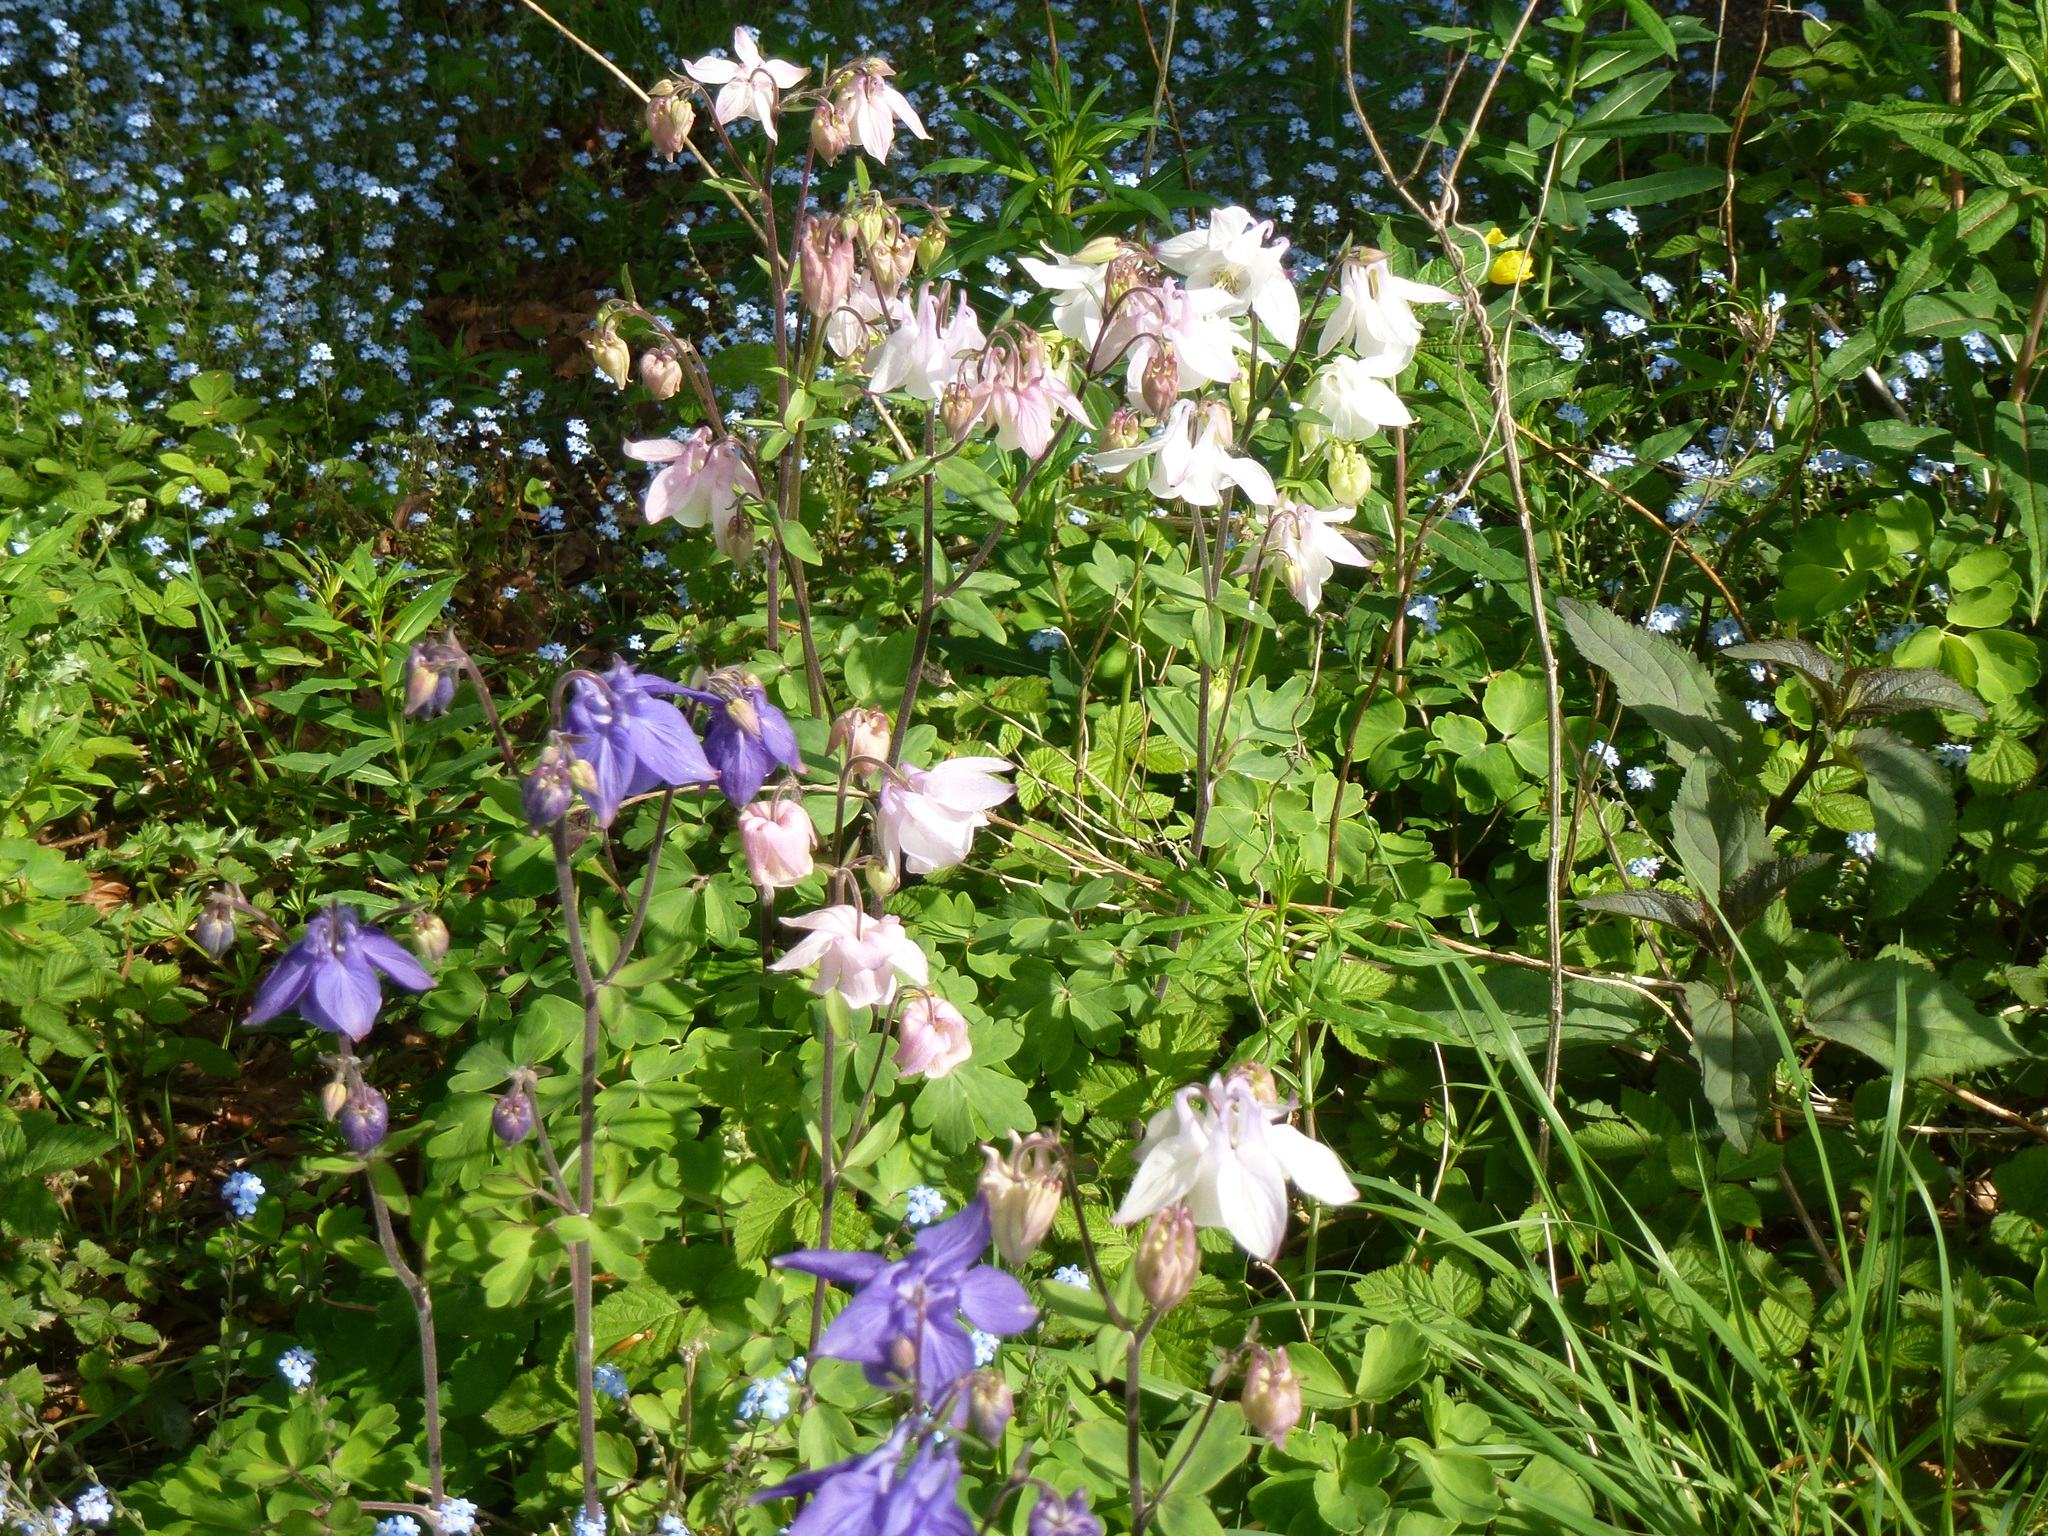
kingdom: Plantae
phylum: Tracheophyta
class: Magnoliopsida
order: Ranunculales
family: Ranunculaceae
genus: Aquilegia
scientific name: Aquilegia vulgaris
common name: Columbine
